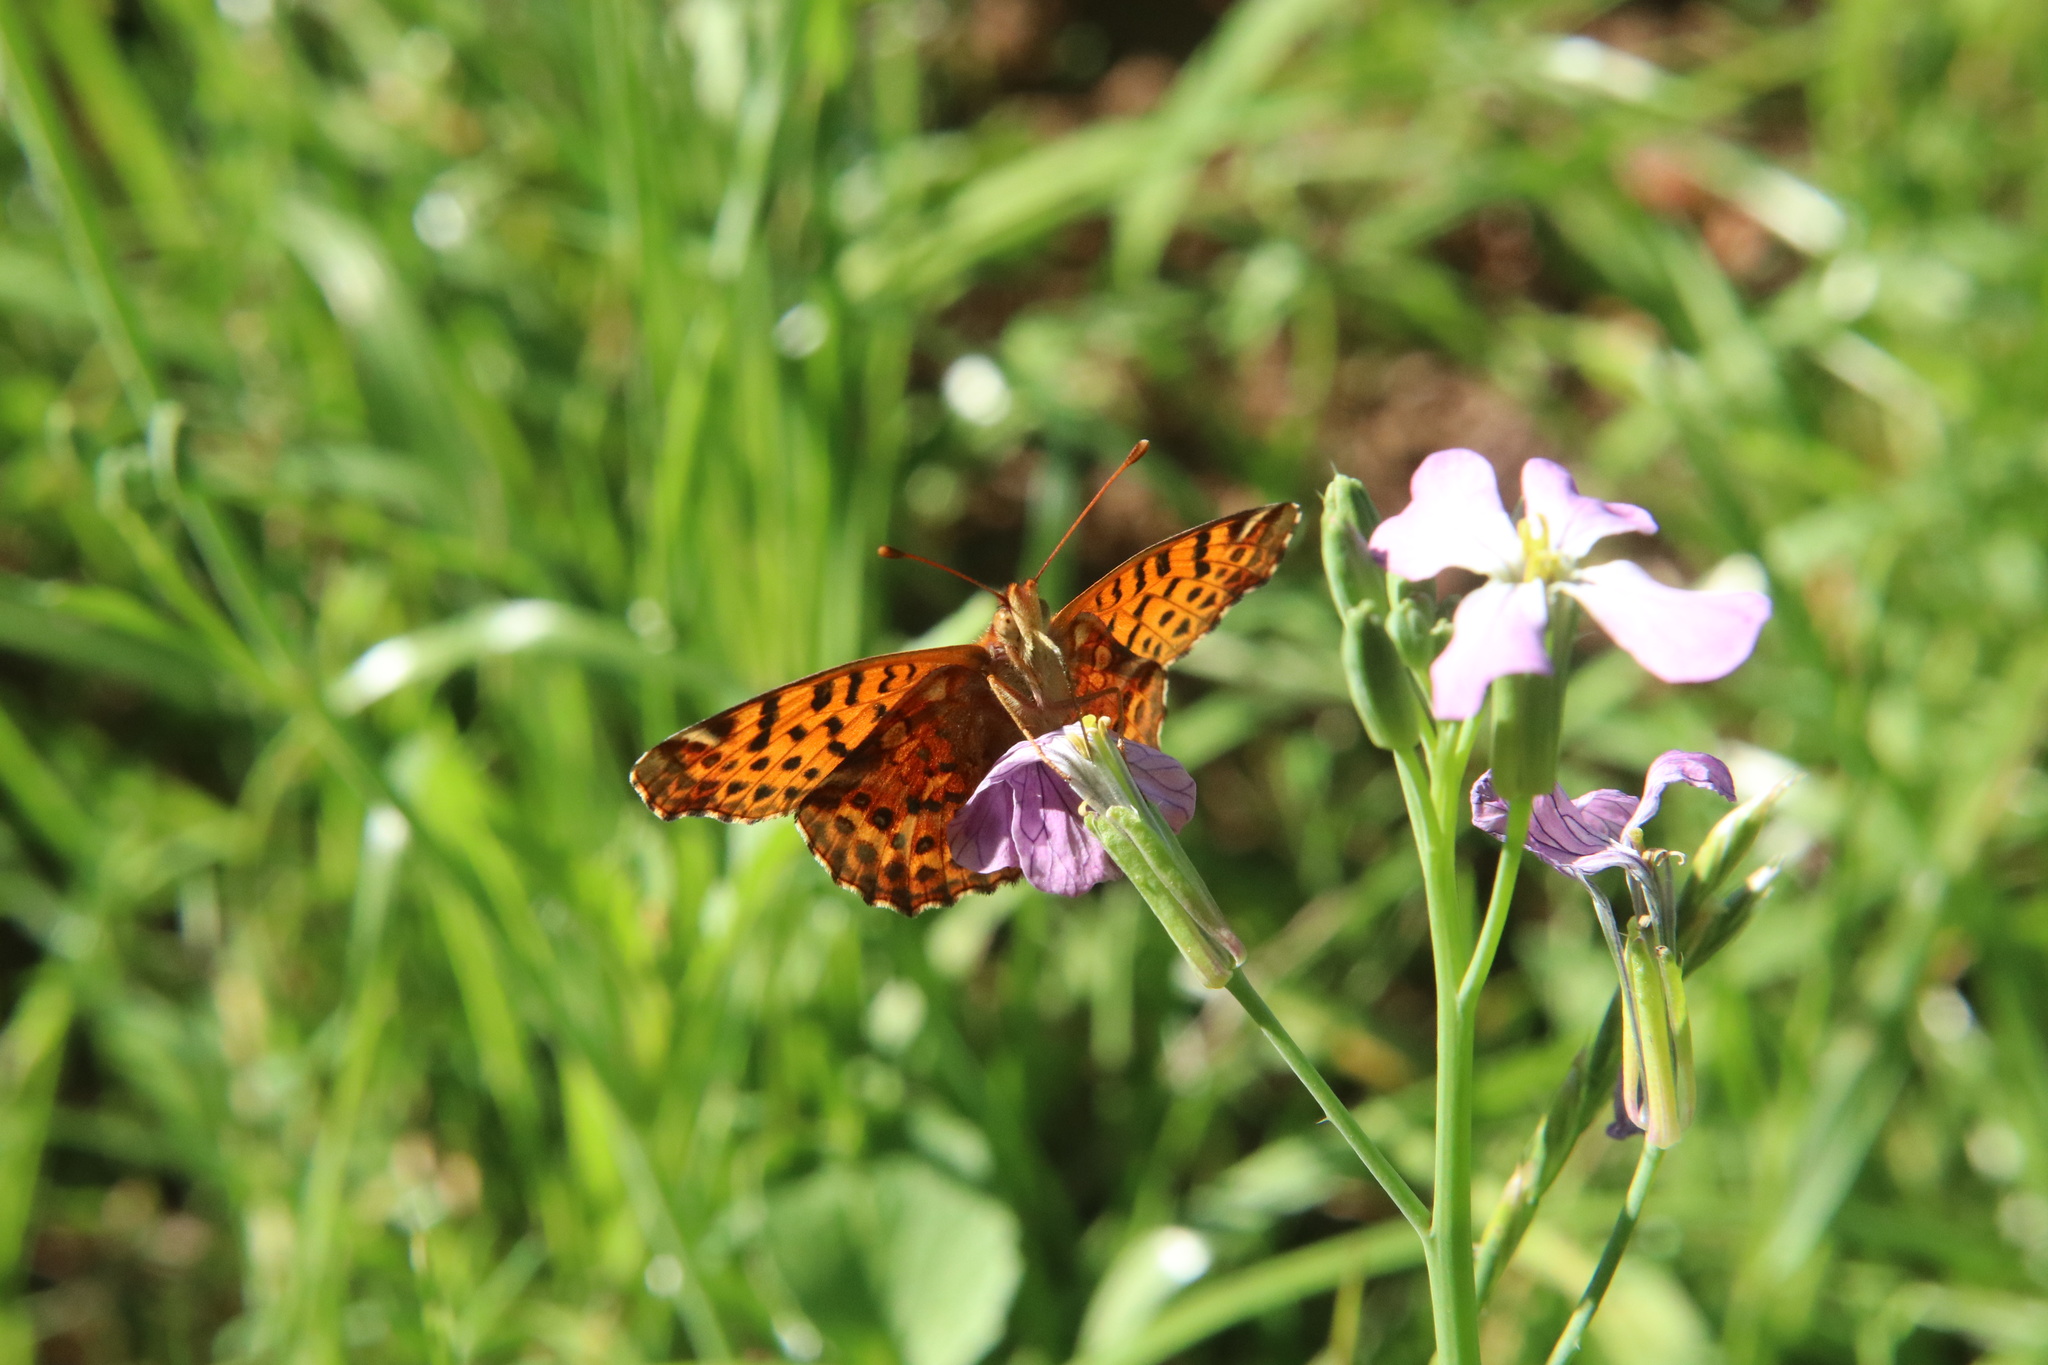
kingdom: Animalia
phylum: Arthropoda
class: Insecta
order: Lepidoptera
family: Nymphalidae
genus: Issoria
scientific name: Issoria Yramea cytheris
